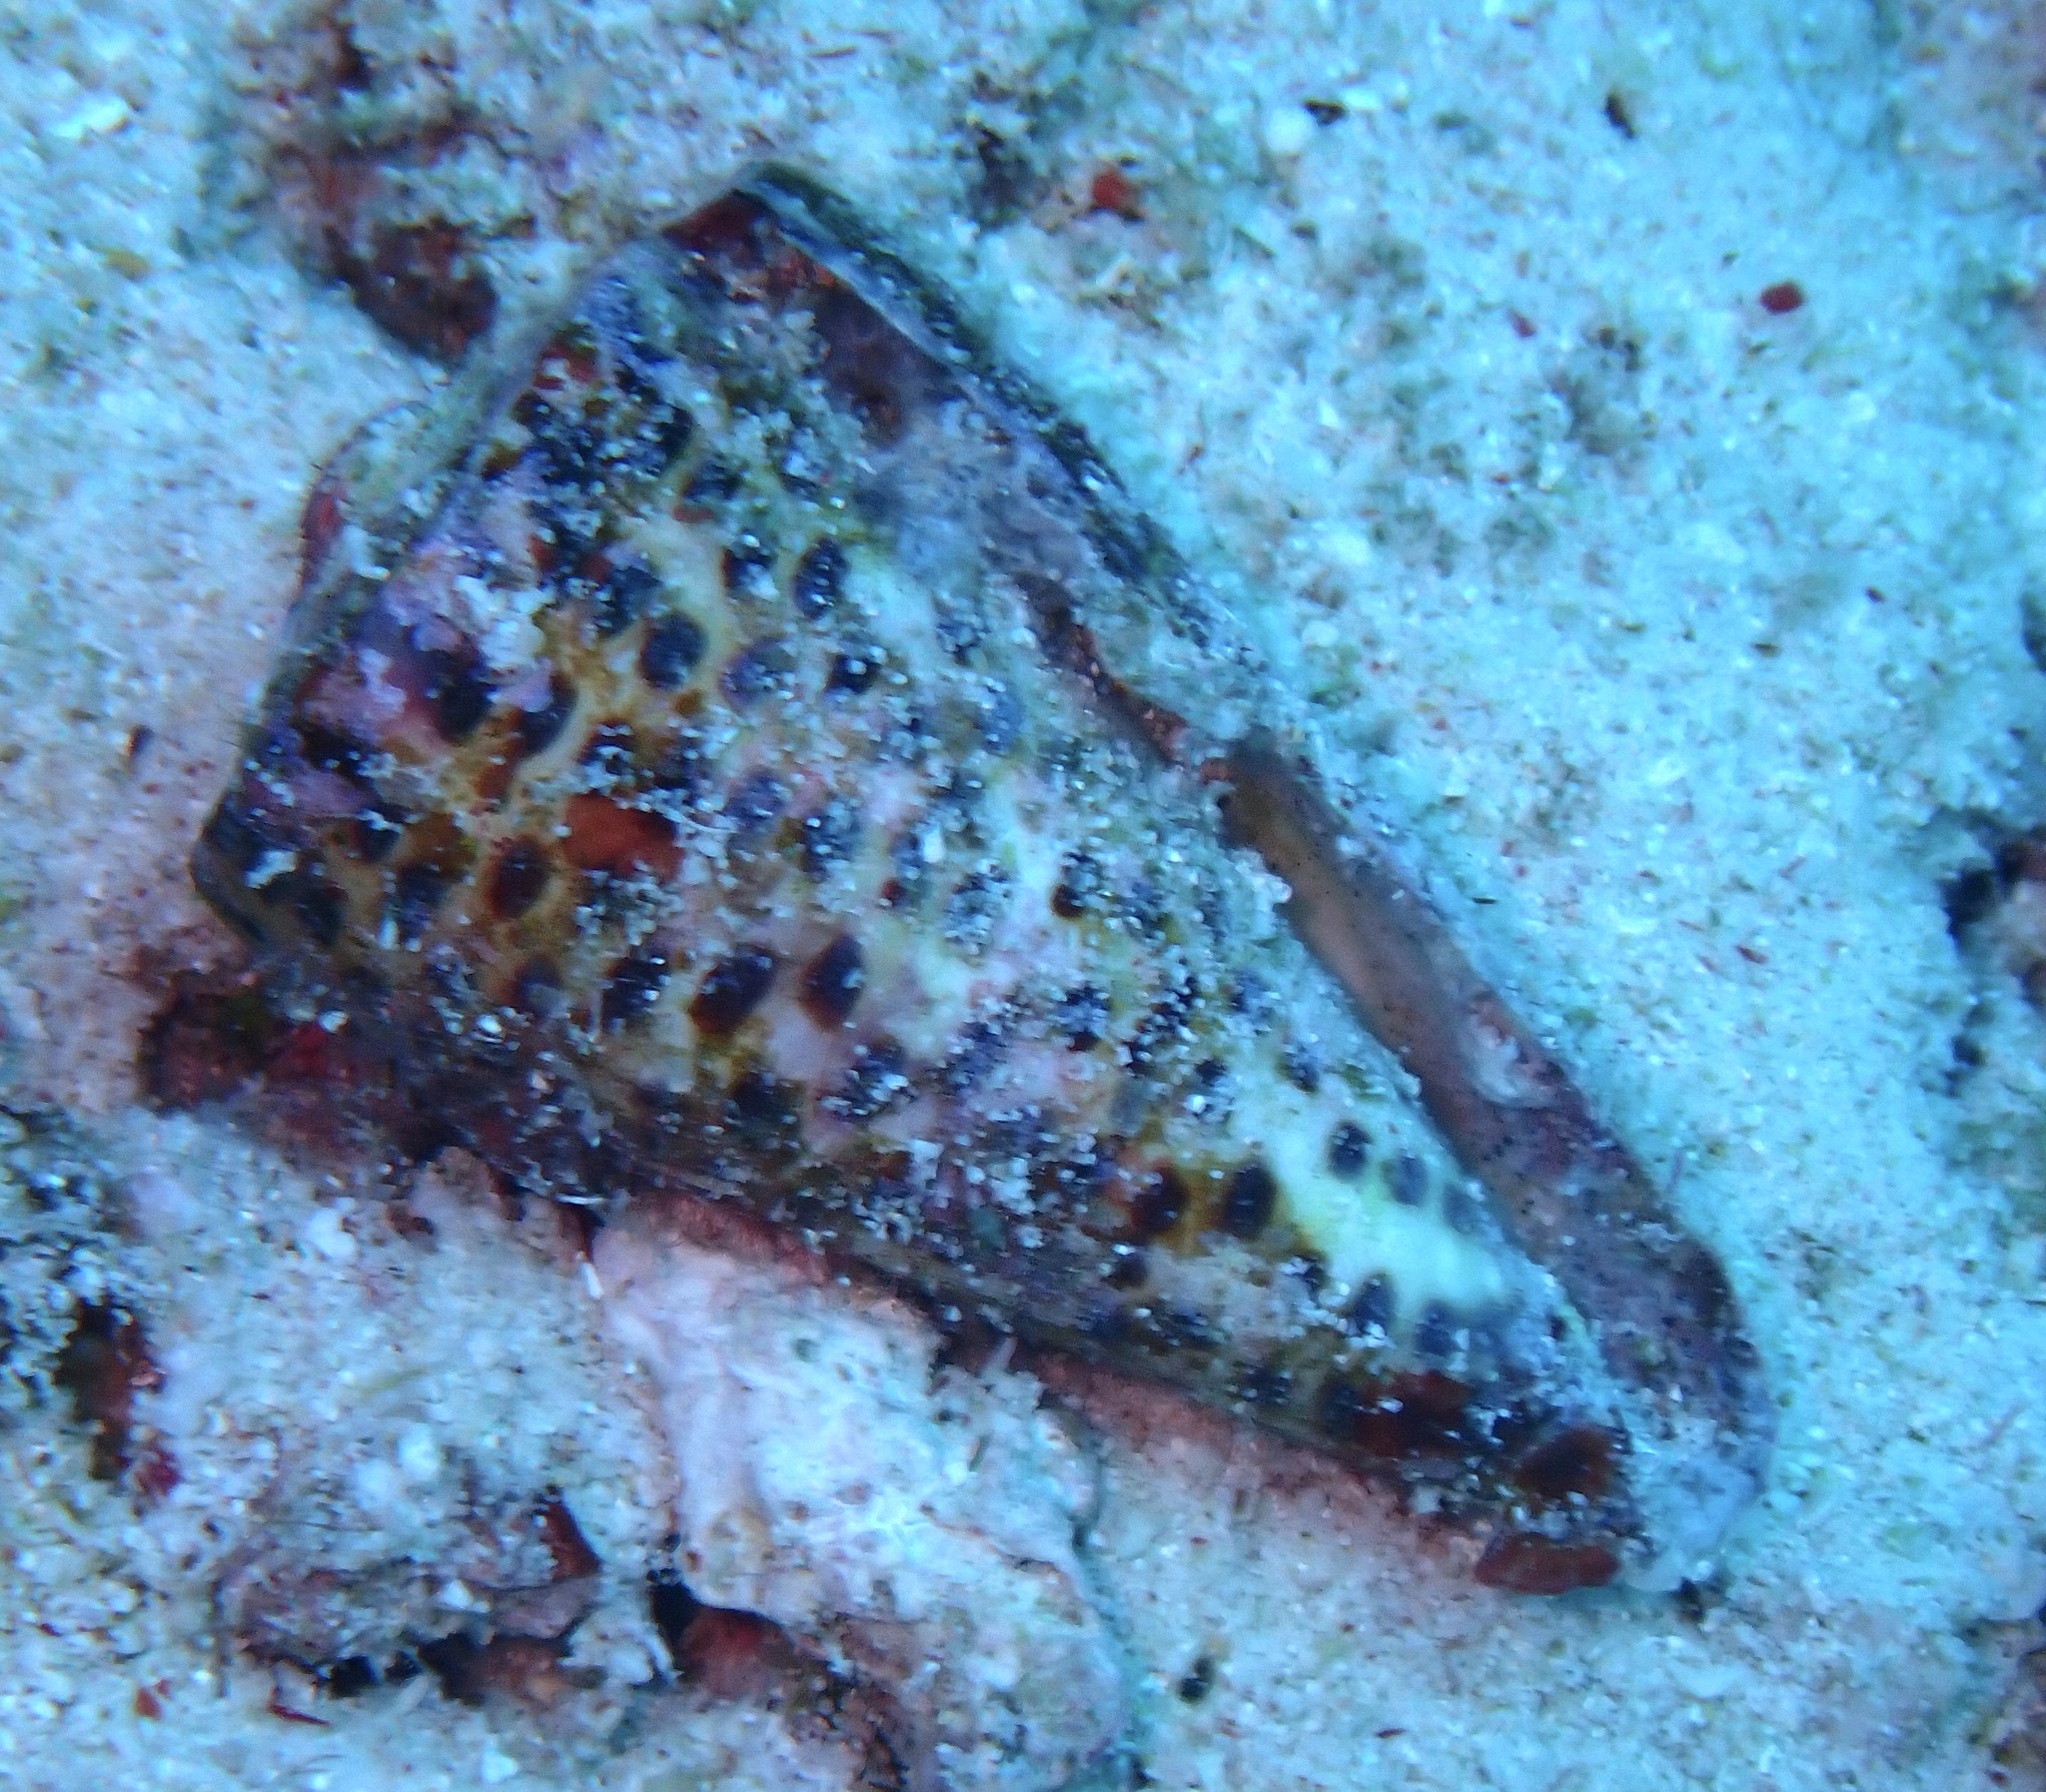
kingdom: Animalia
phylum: Mollusca
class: Gastropoda
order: Neogastropoda
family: Conidae
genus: Conus
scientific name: Conus litteratus
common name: Lettered cone
